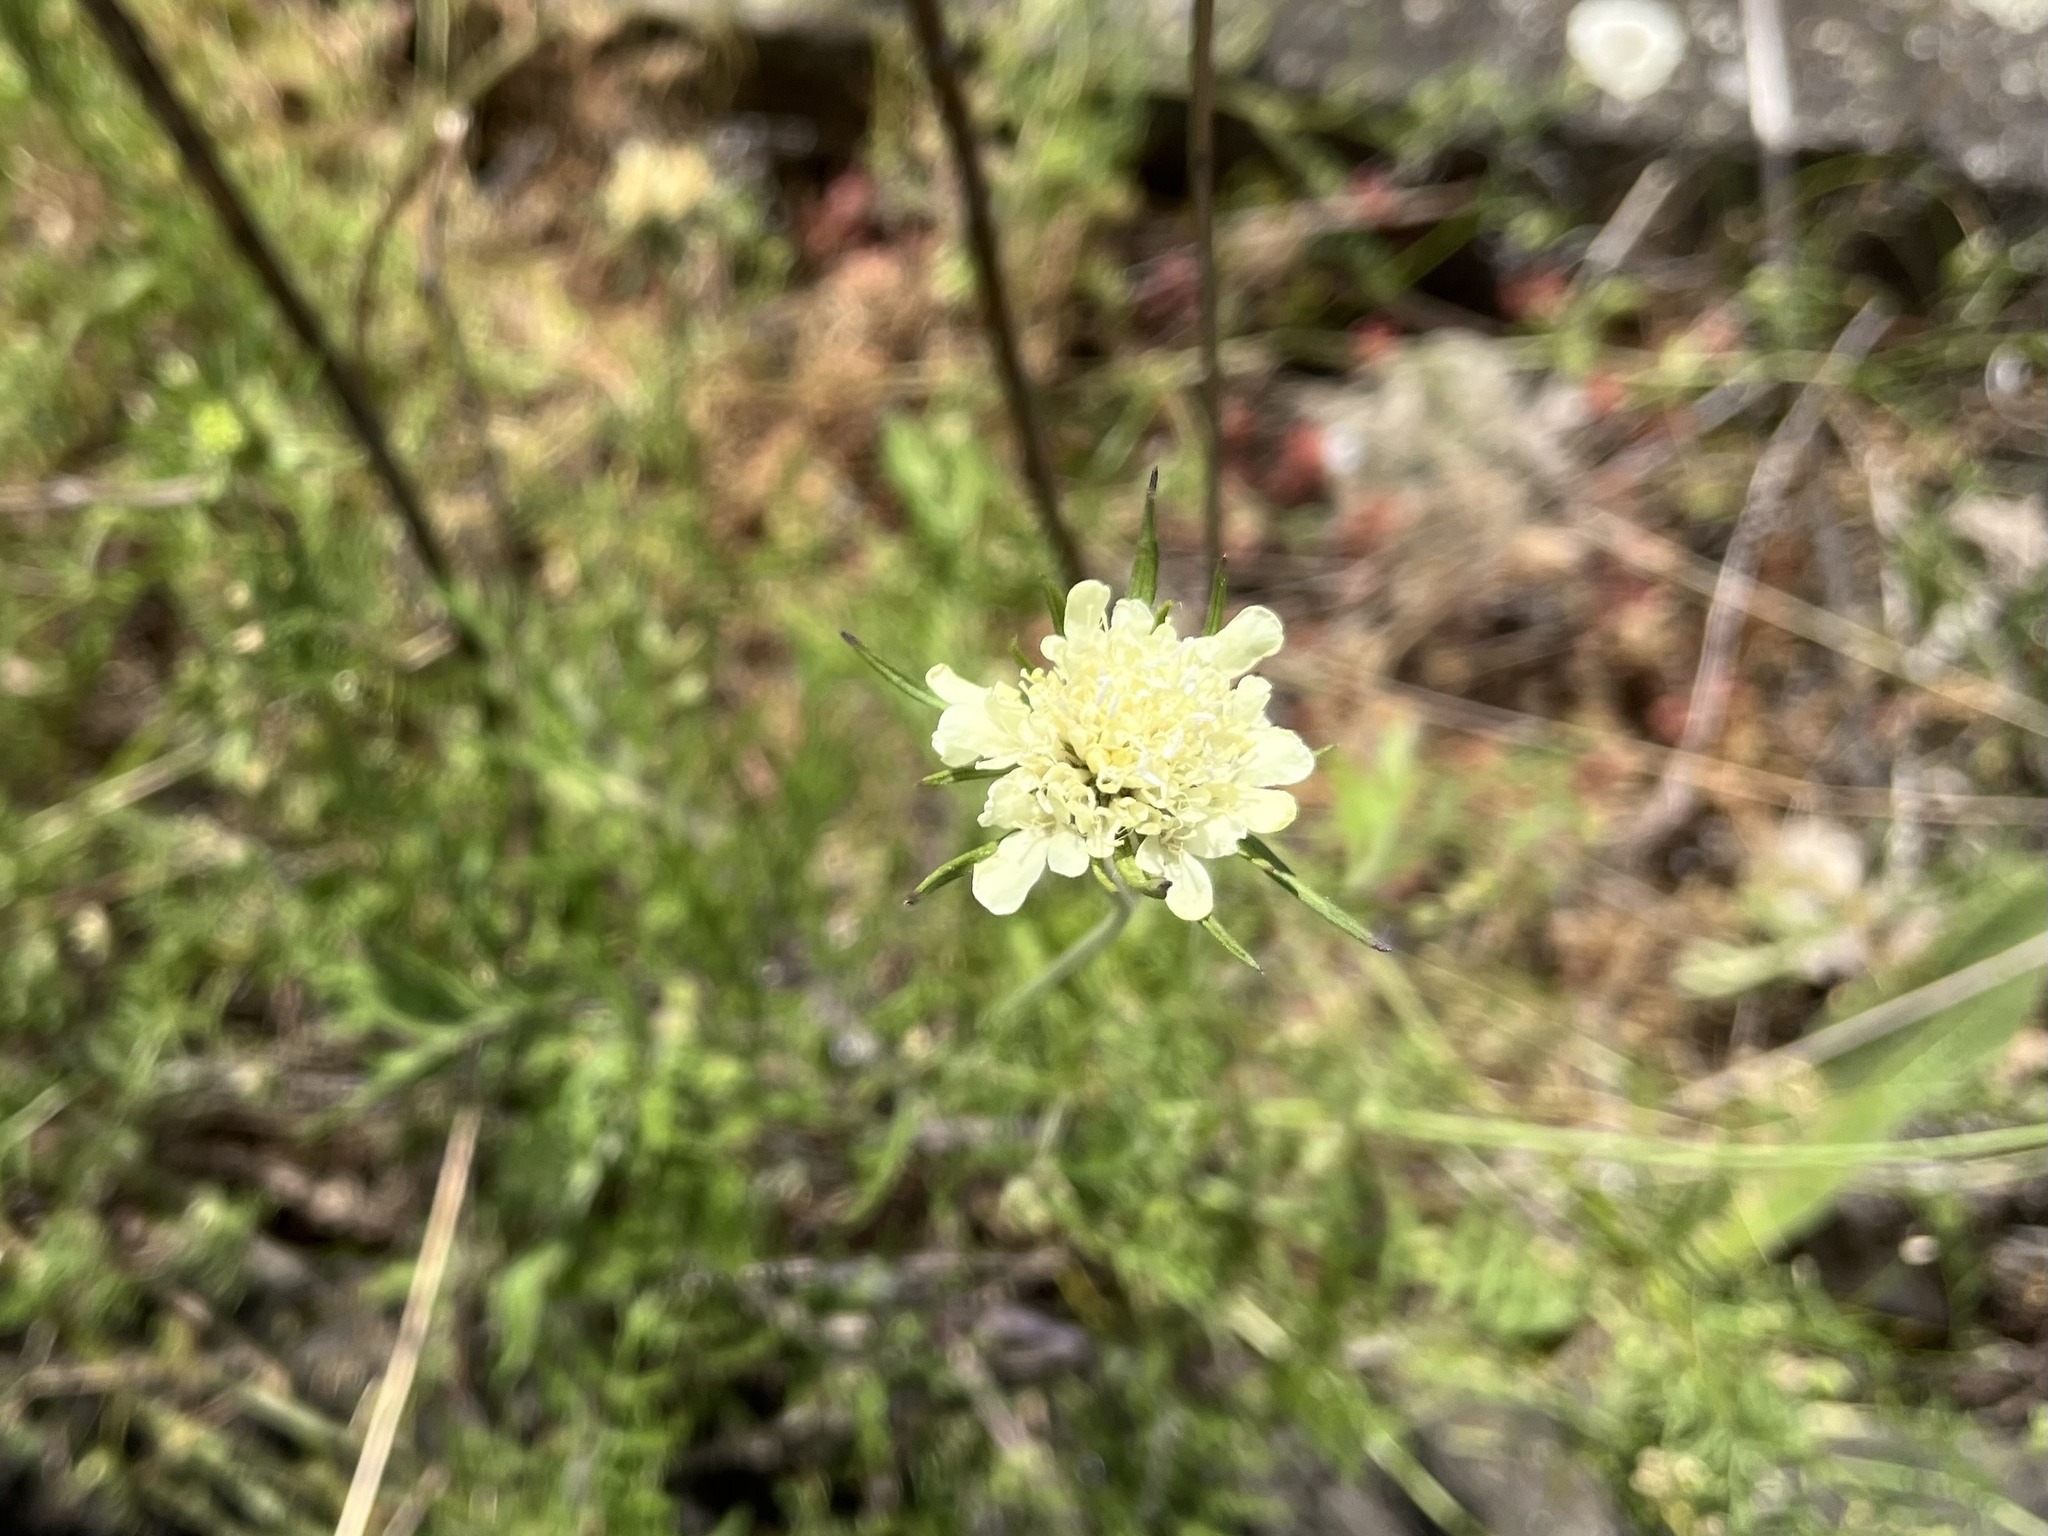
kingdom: Plantae
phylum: Tracheophyta
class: Magnoliopsida
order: Dipsacales
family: Caprifoliaceae
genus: Scabiosa
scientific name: Scabiosa ochroleuca
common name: Cream pincushions
